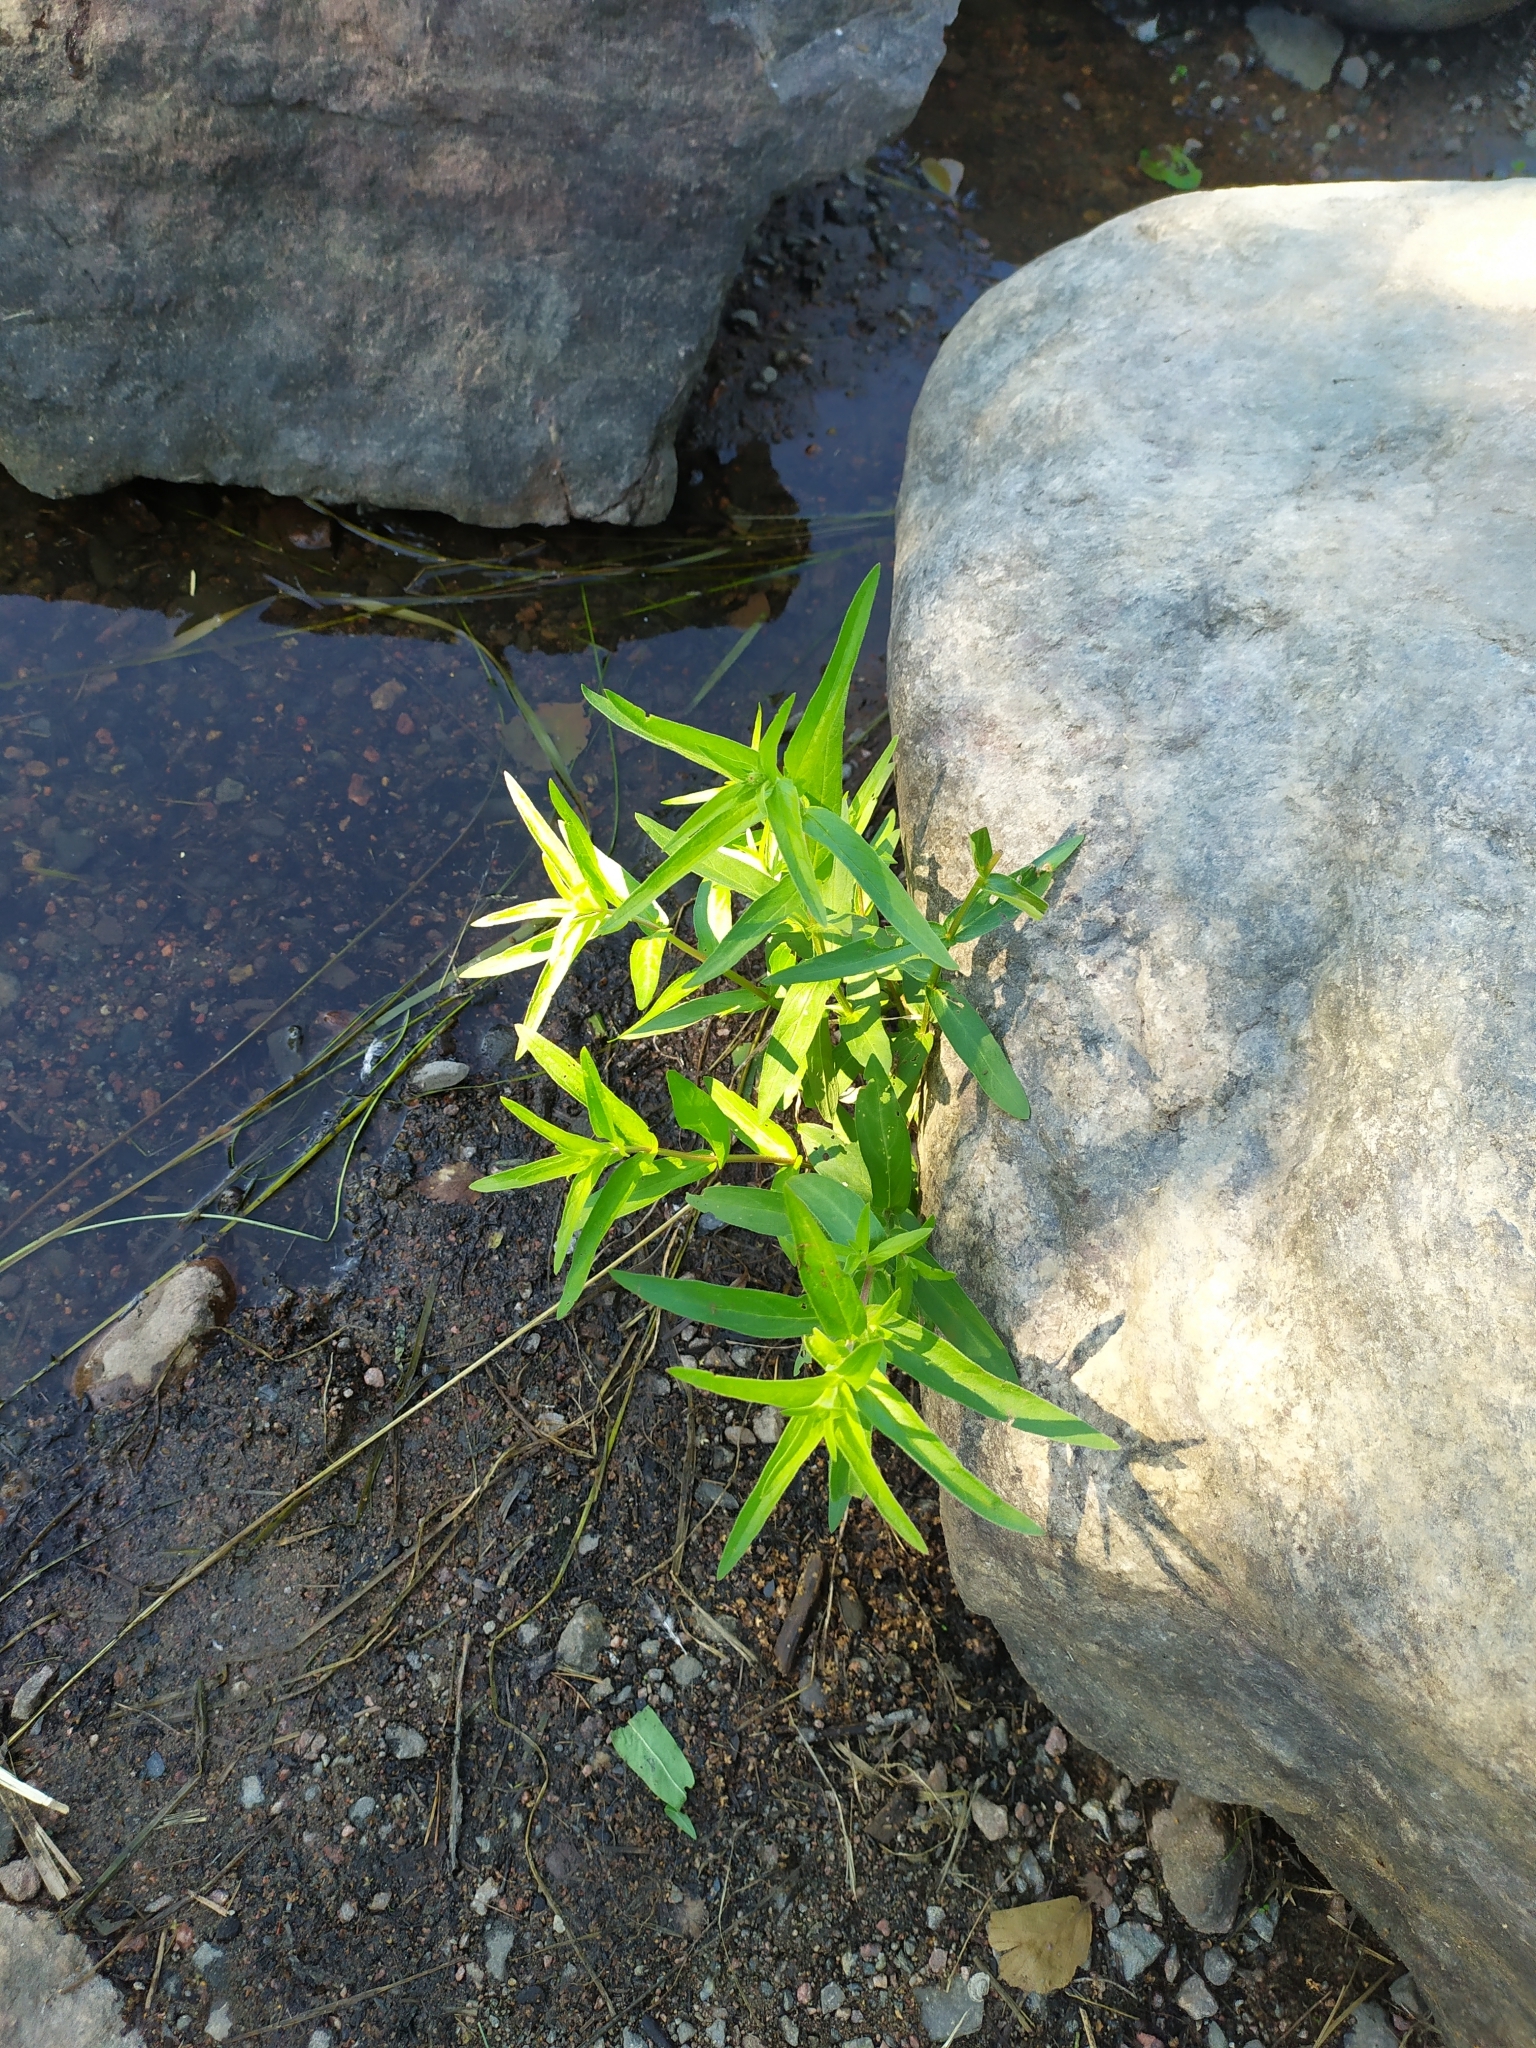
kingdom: Plantae
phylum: Tracheophyta
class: Magnoliopsida
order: Myrtales
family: Lythraceae
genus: Lythrum
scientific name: Lythrum salicaria
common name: Purple loosestrife
